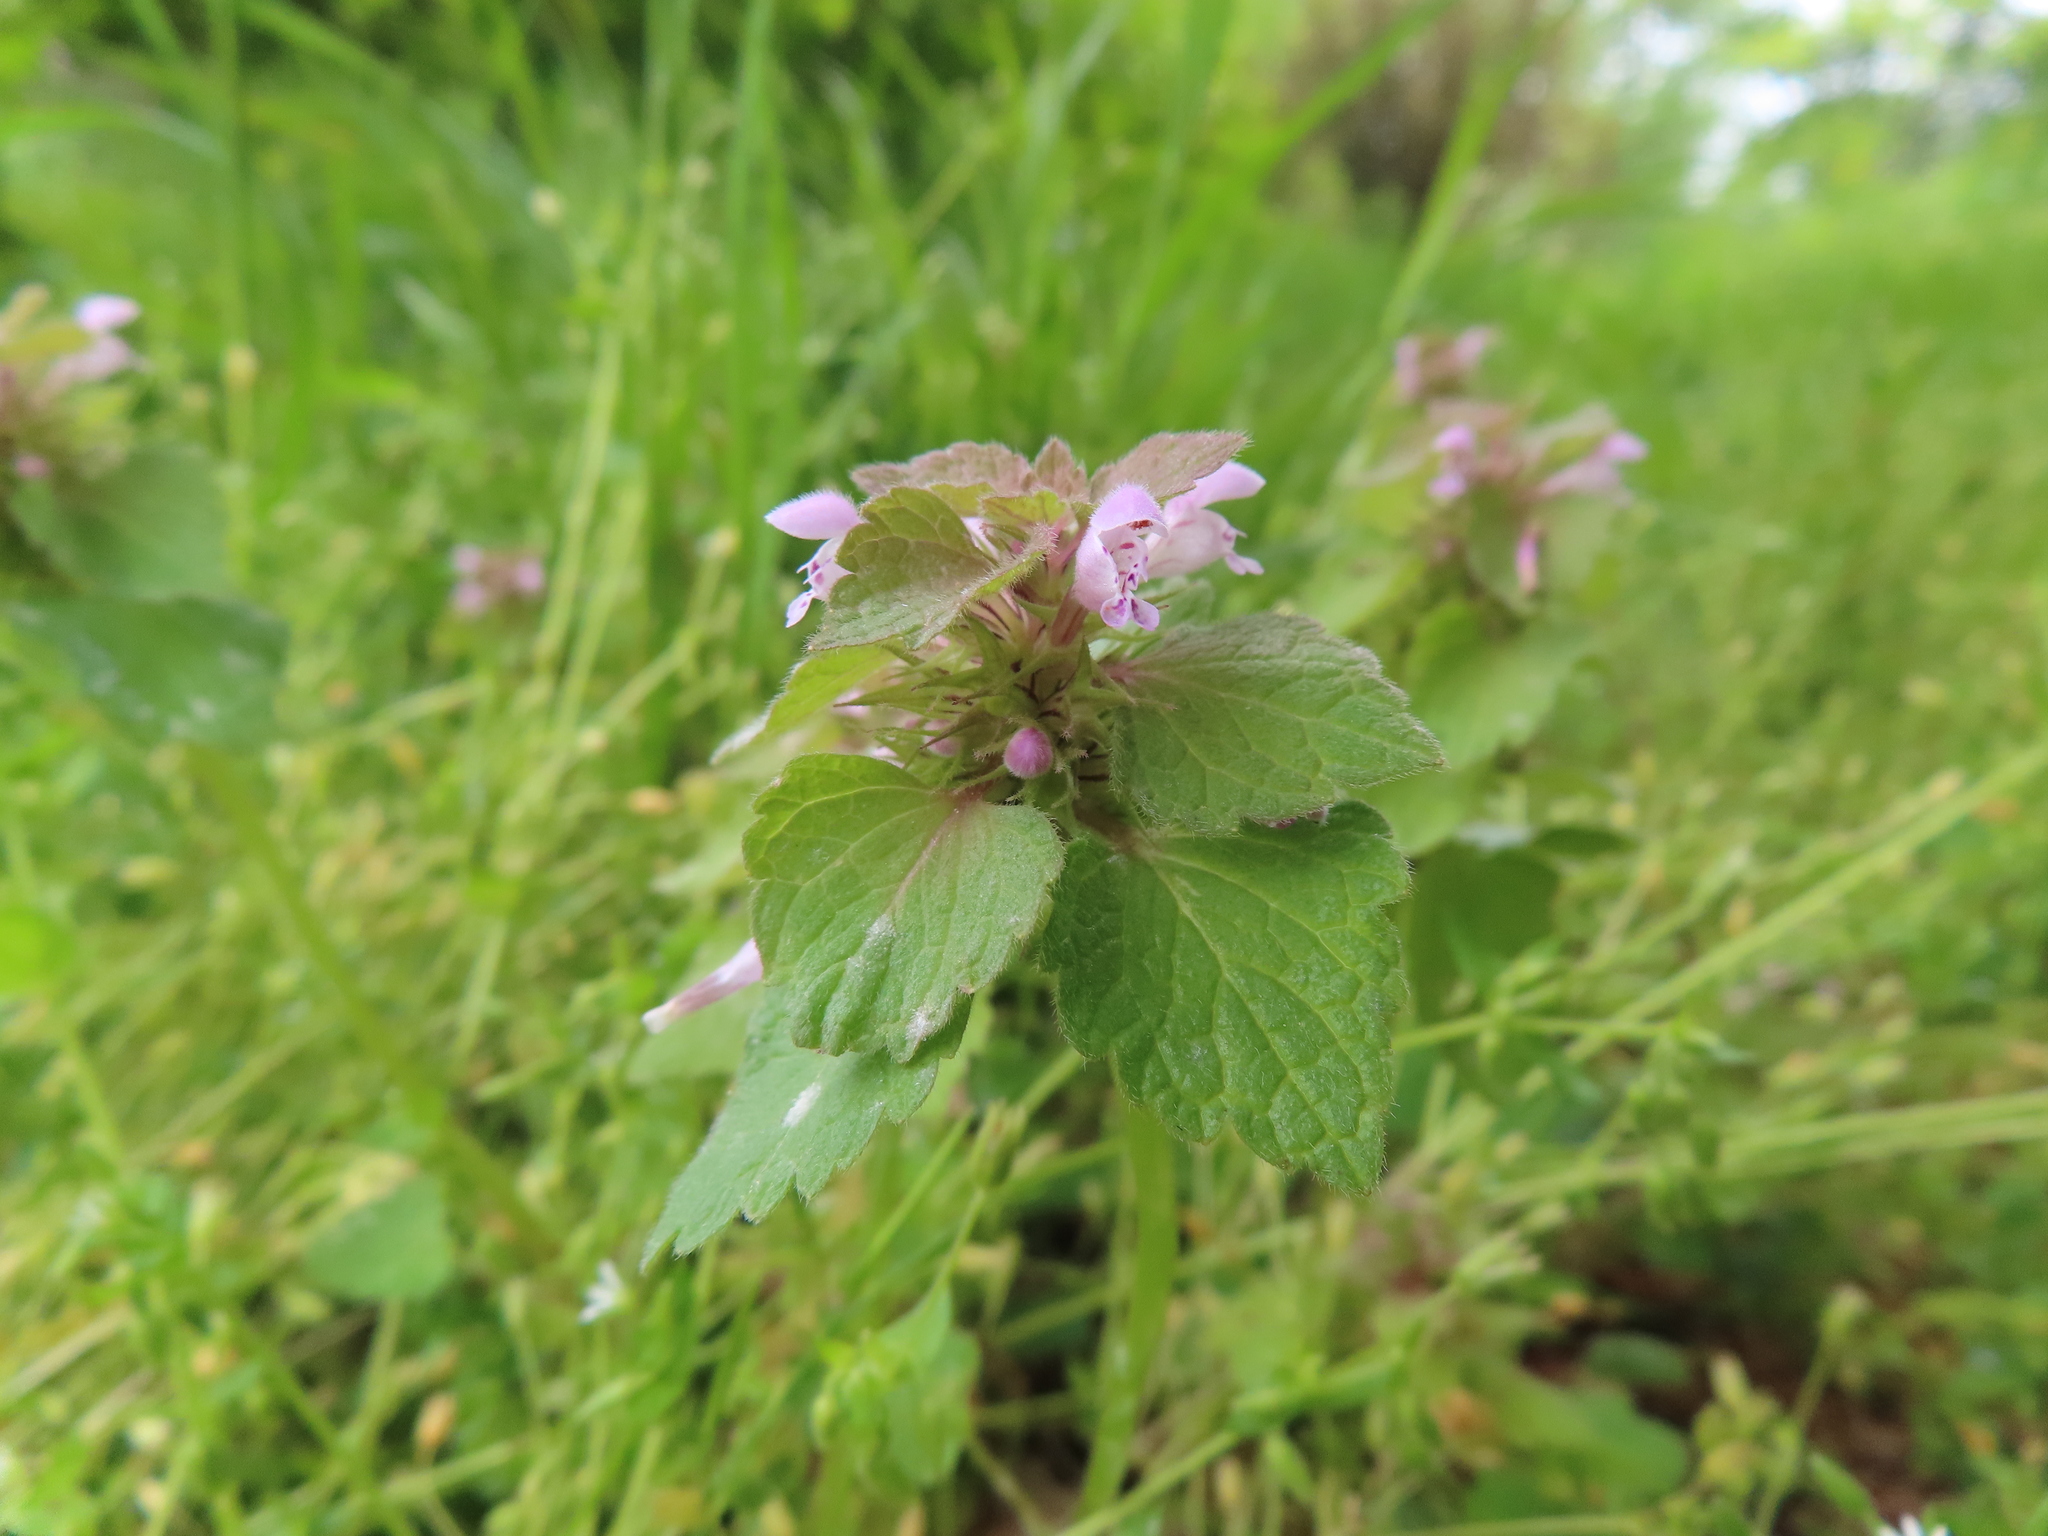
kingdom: Plantae
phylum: Tracheophyta
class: Magnoliopsida
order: Lamiales
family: Lamiaceae
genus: Lamium
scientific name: Lamium purpureum
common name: Red dead-nettle
